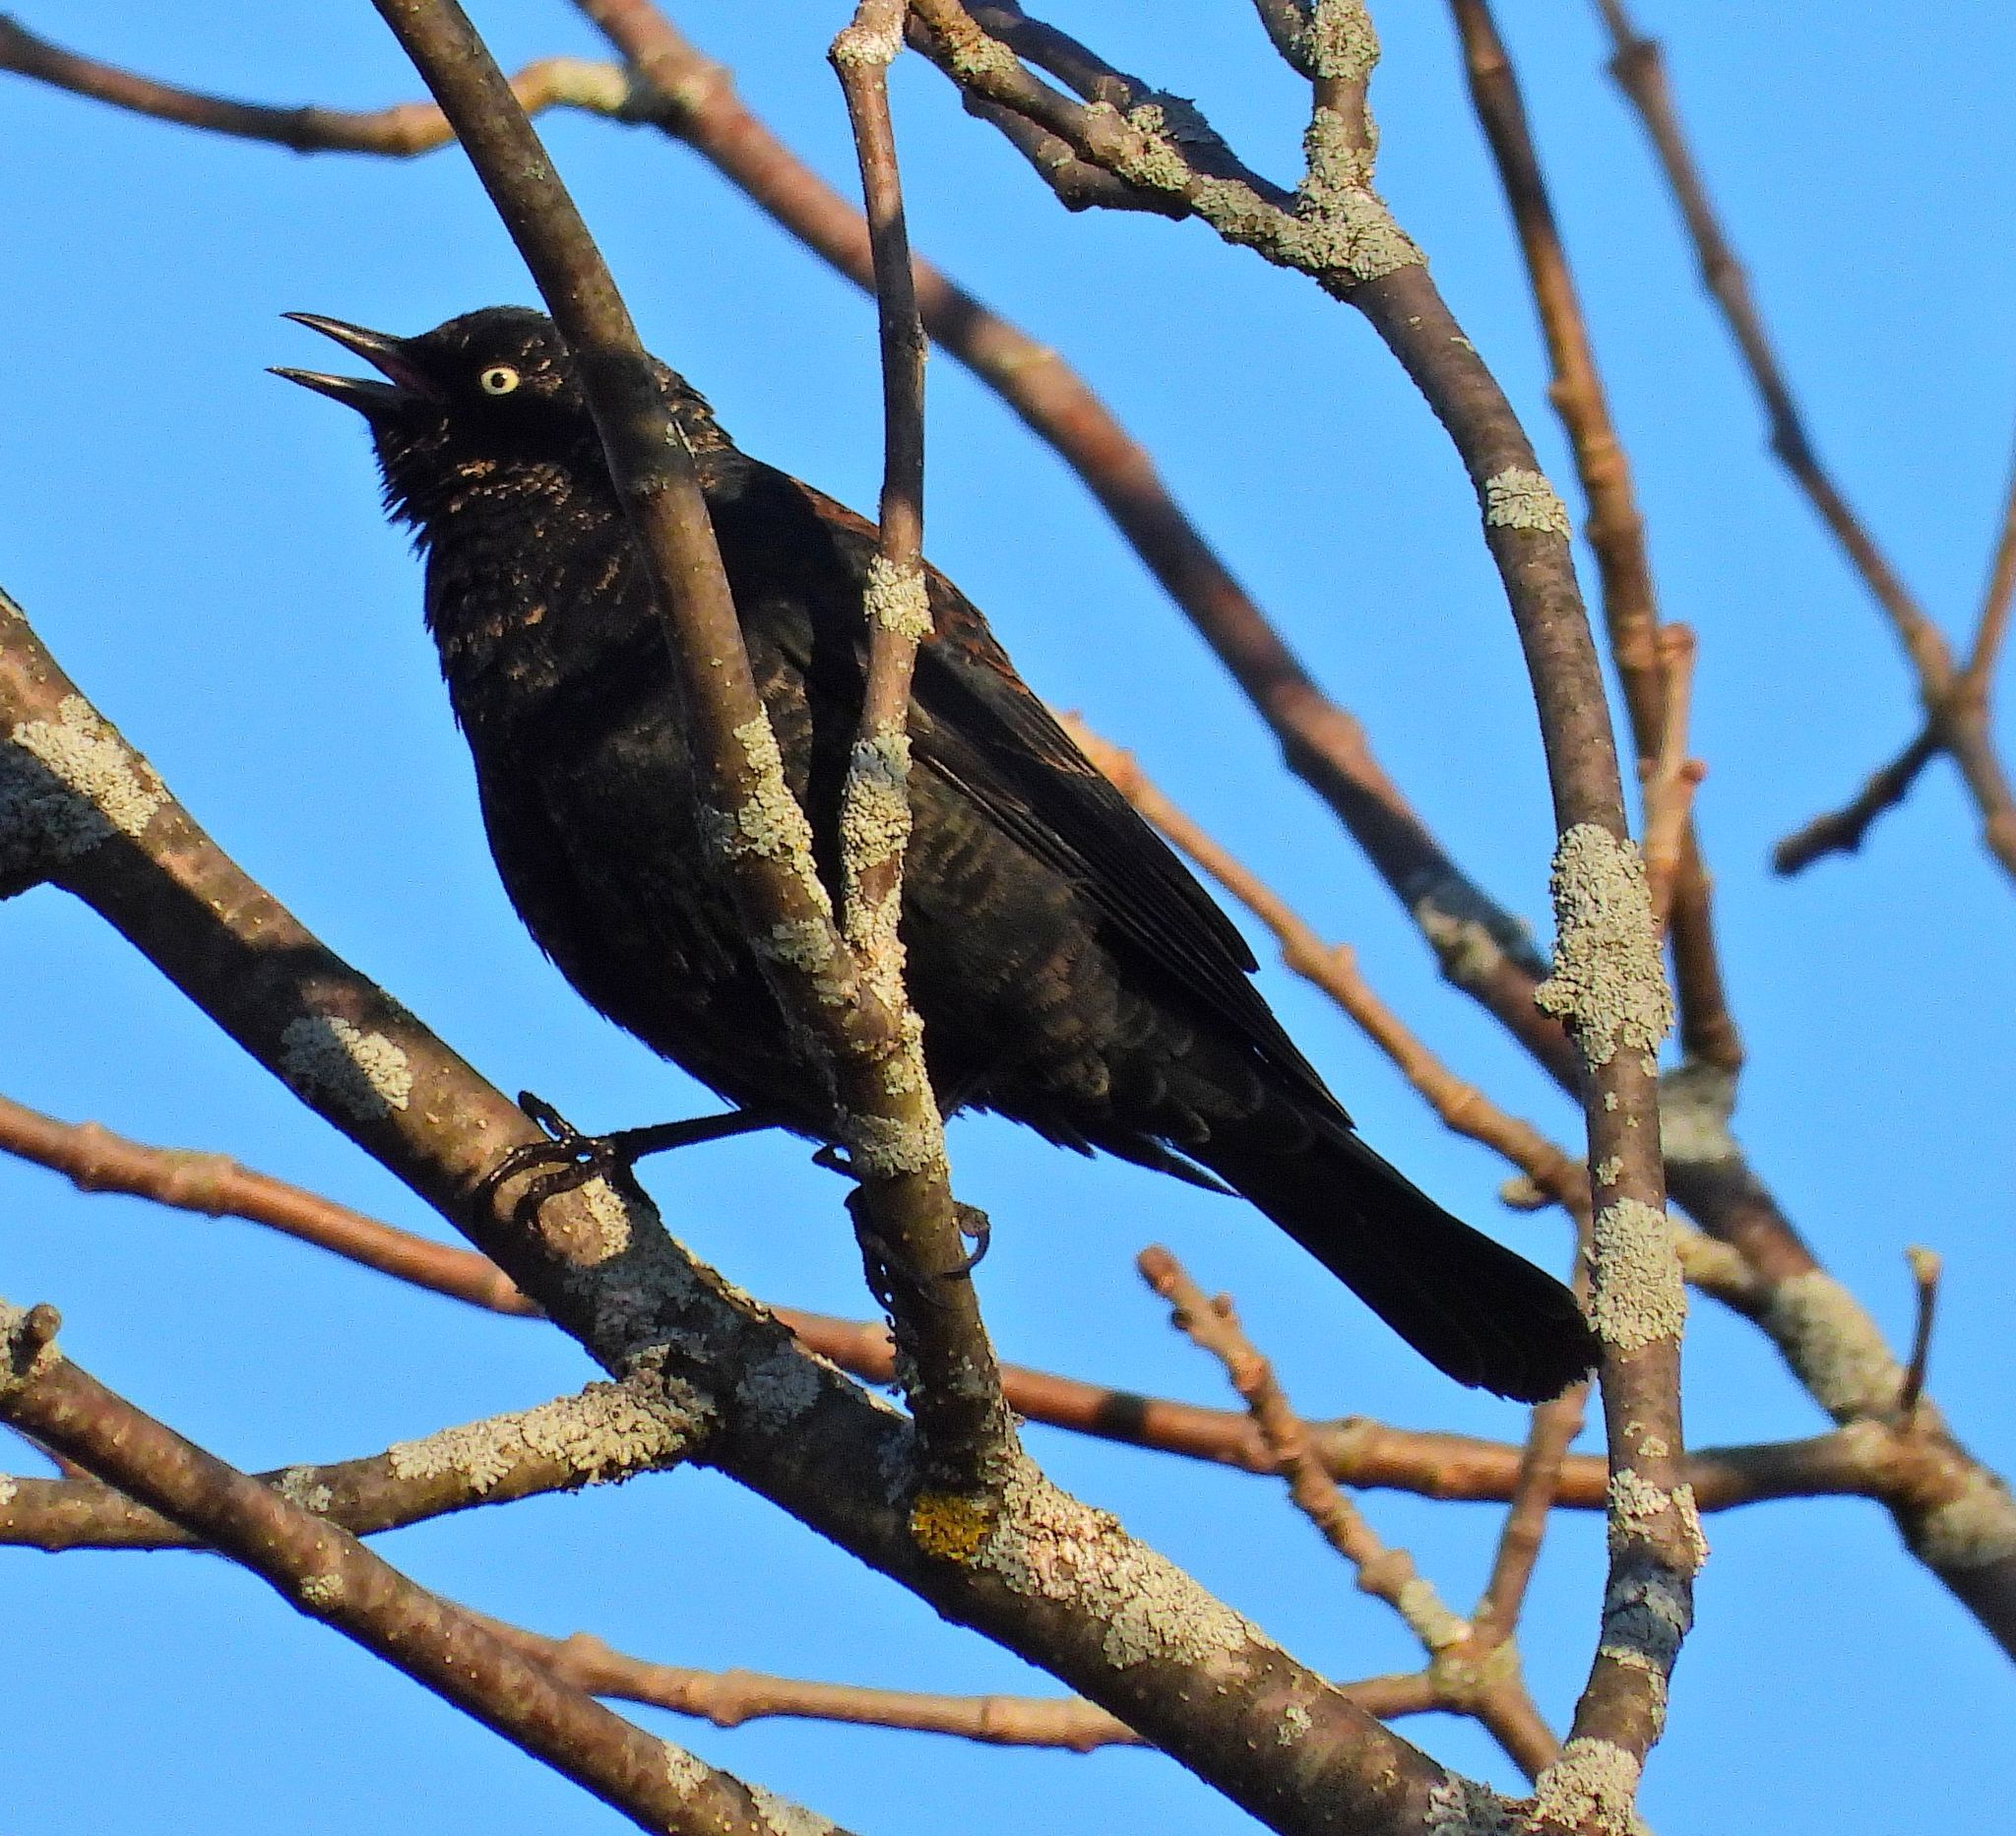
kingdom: Animalia
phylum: Chordata
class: Aves
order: Passeriformes
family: Icteridae
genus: Euphagus
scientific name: Euphagus carolinus
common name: Rusty blackbird
